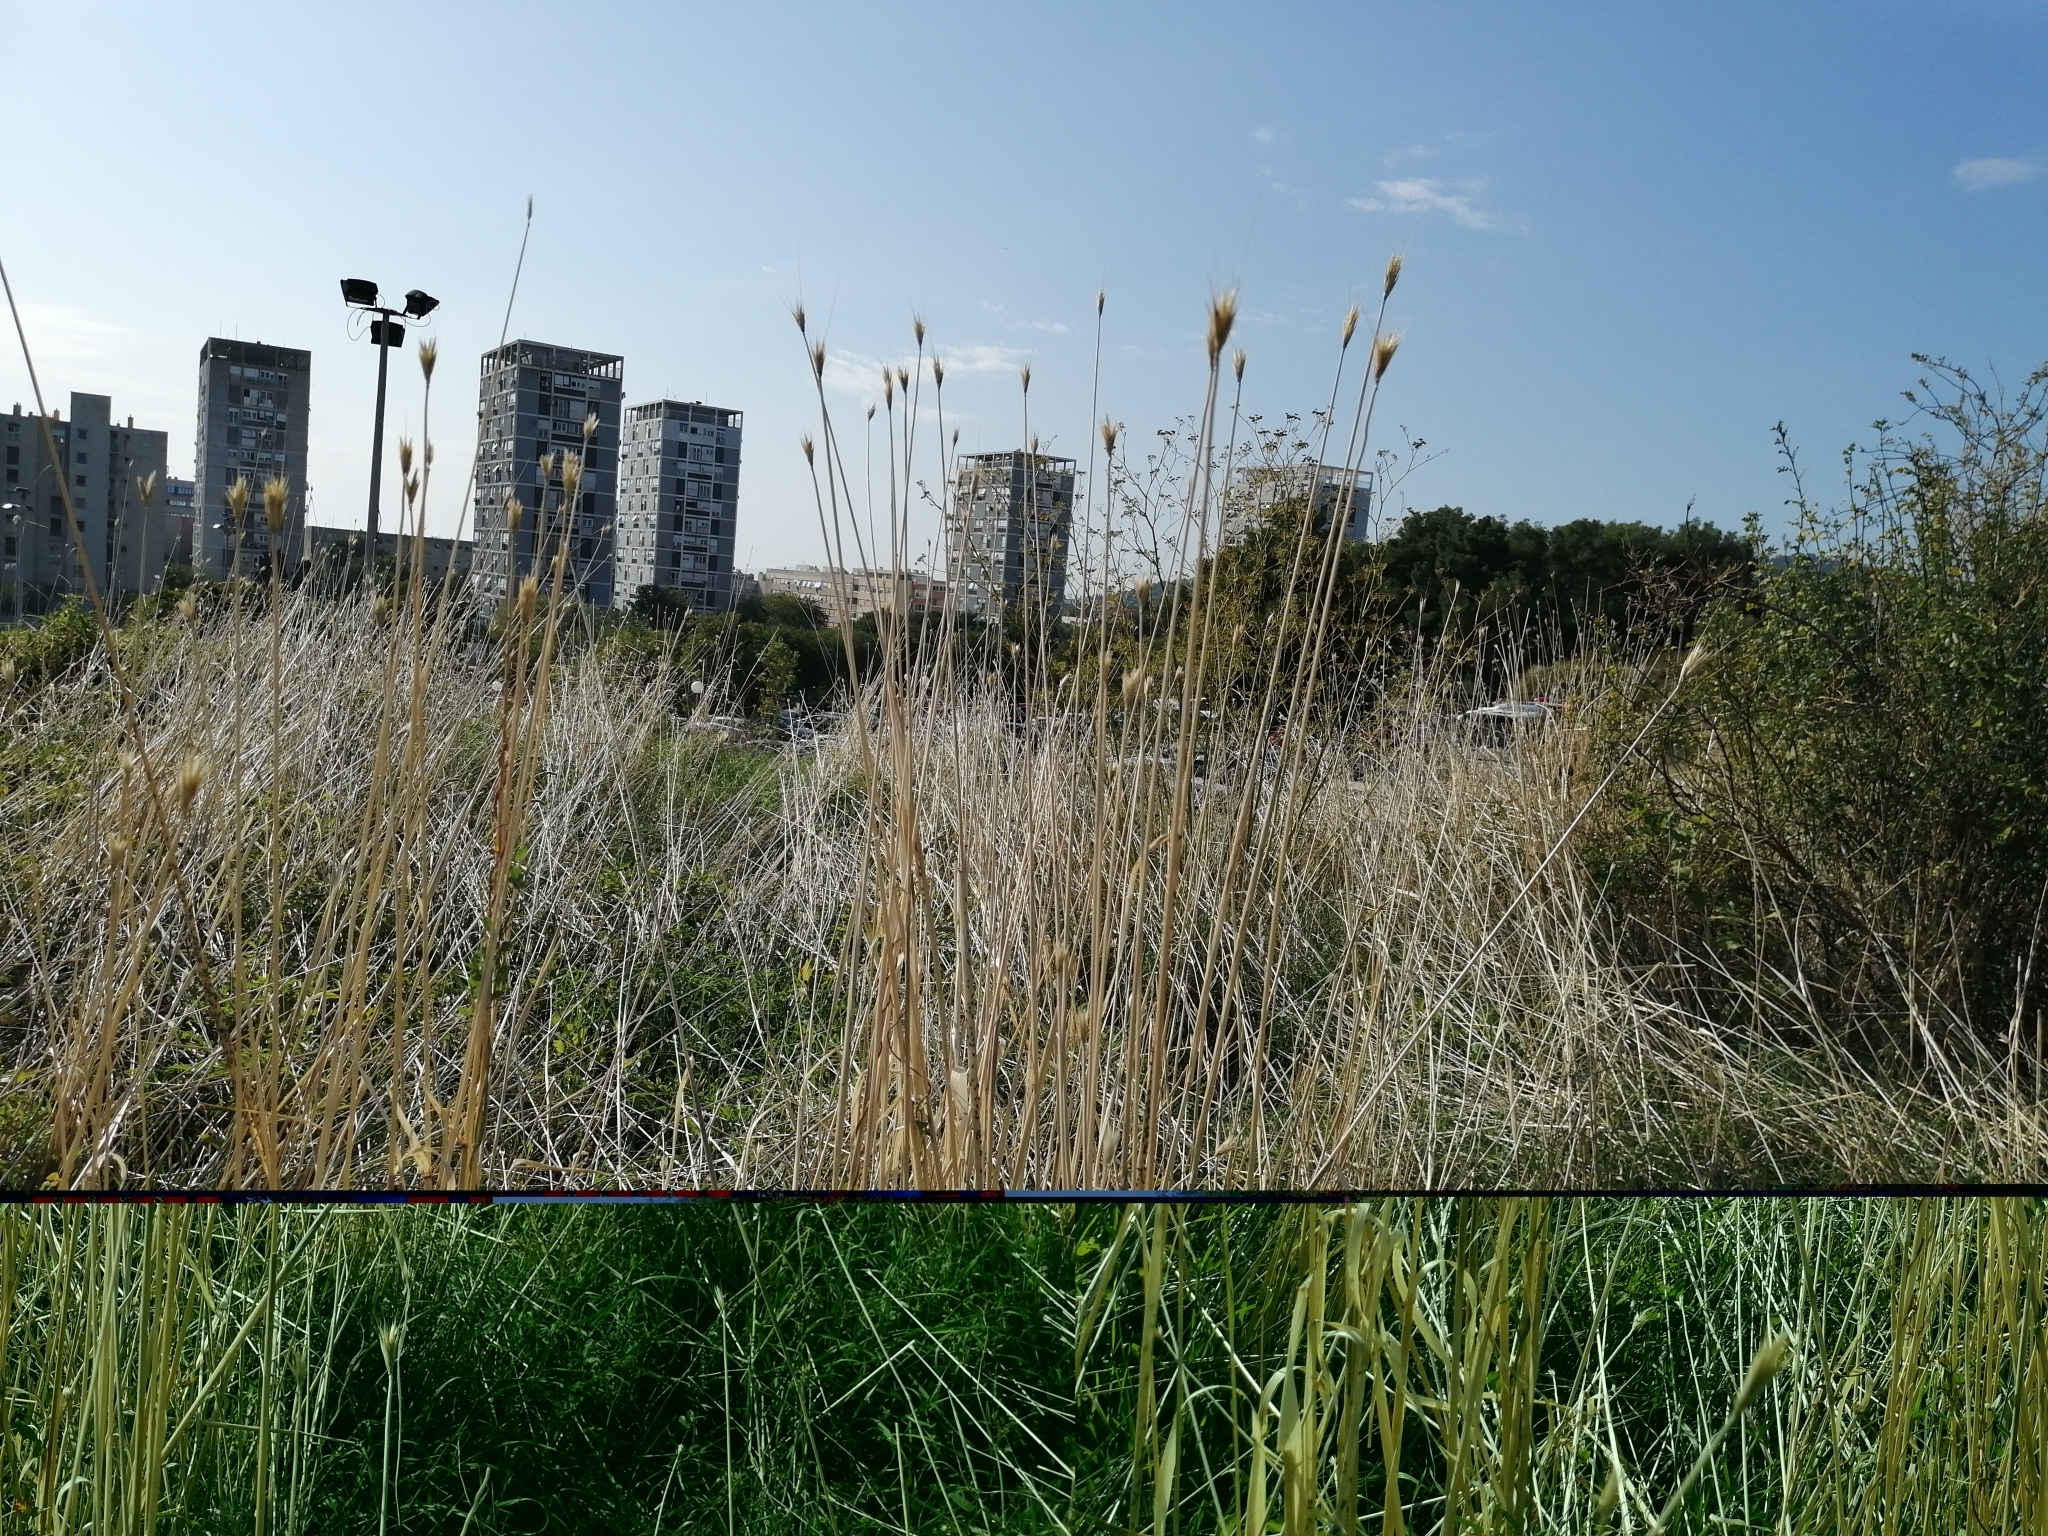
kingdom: Plantae
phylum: Tracheophyta
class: Liliopsida
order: Poales
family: Poaceae
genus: Dasypyrum
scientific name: Dasypyrum villosum
